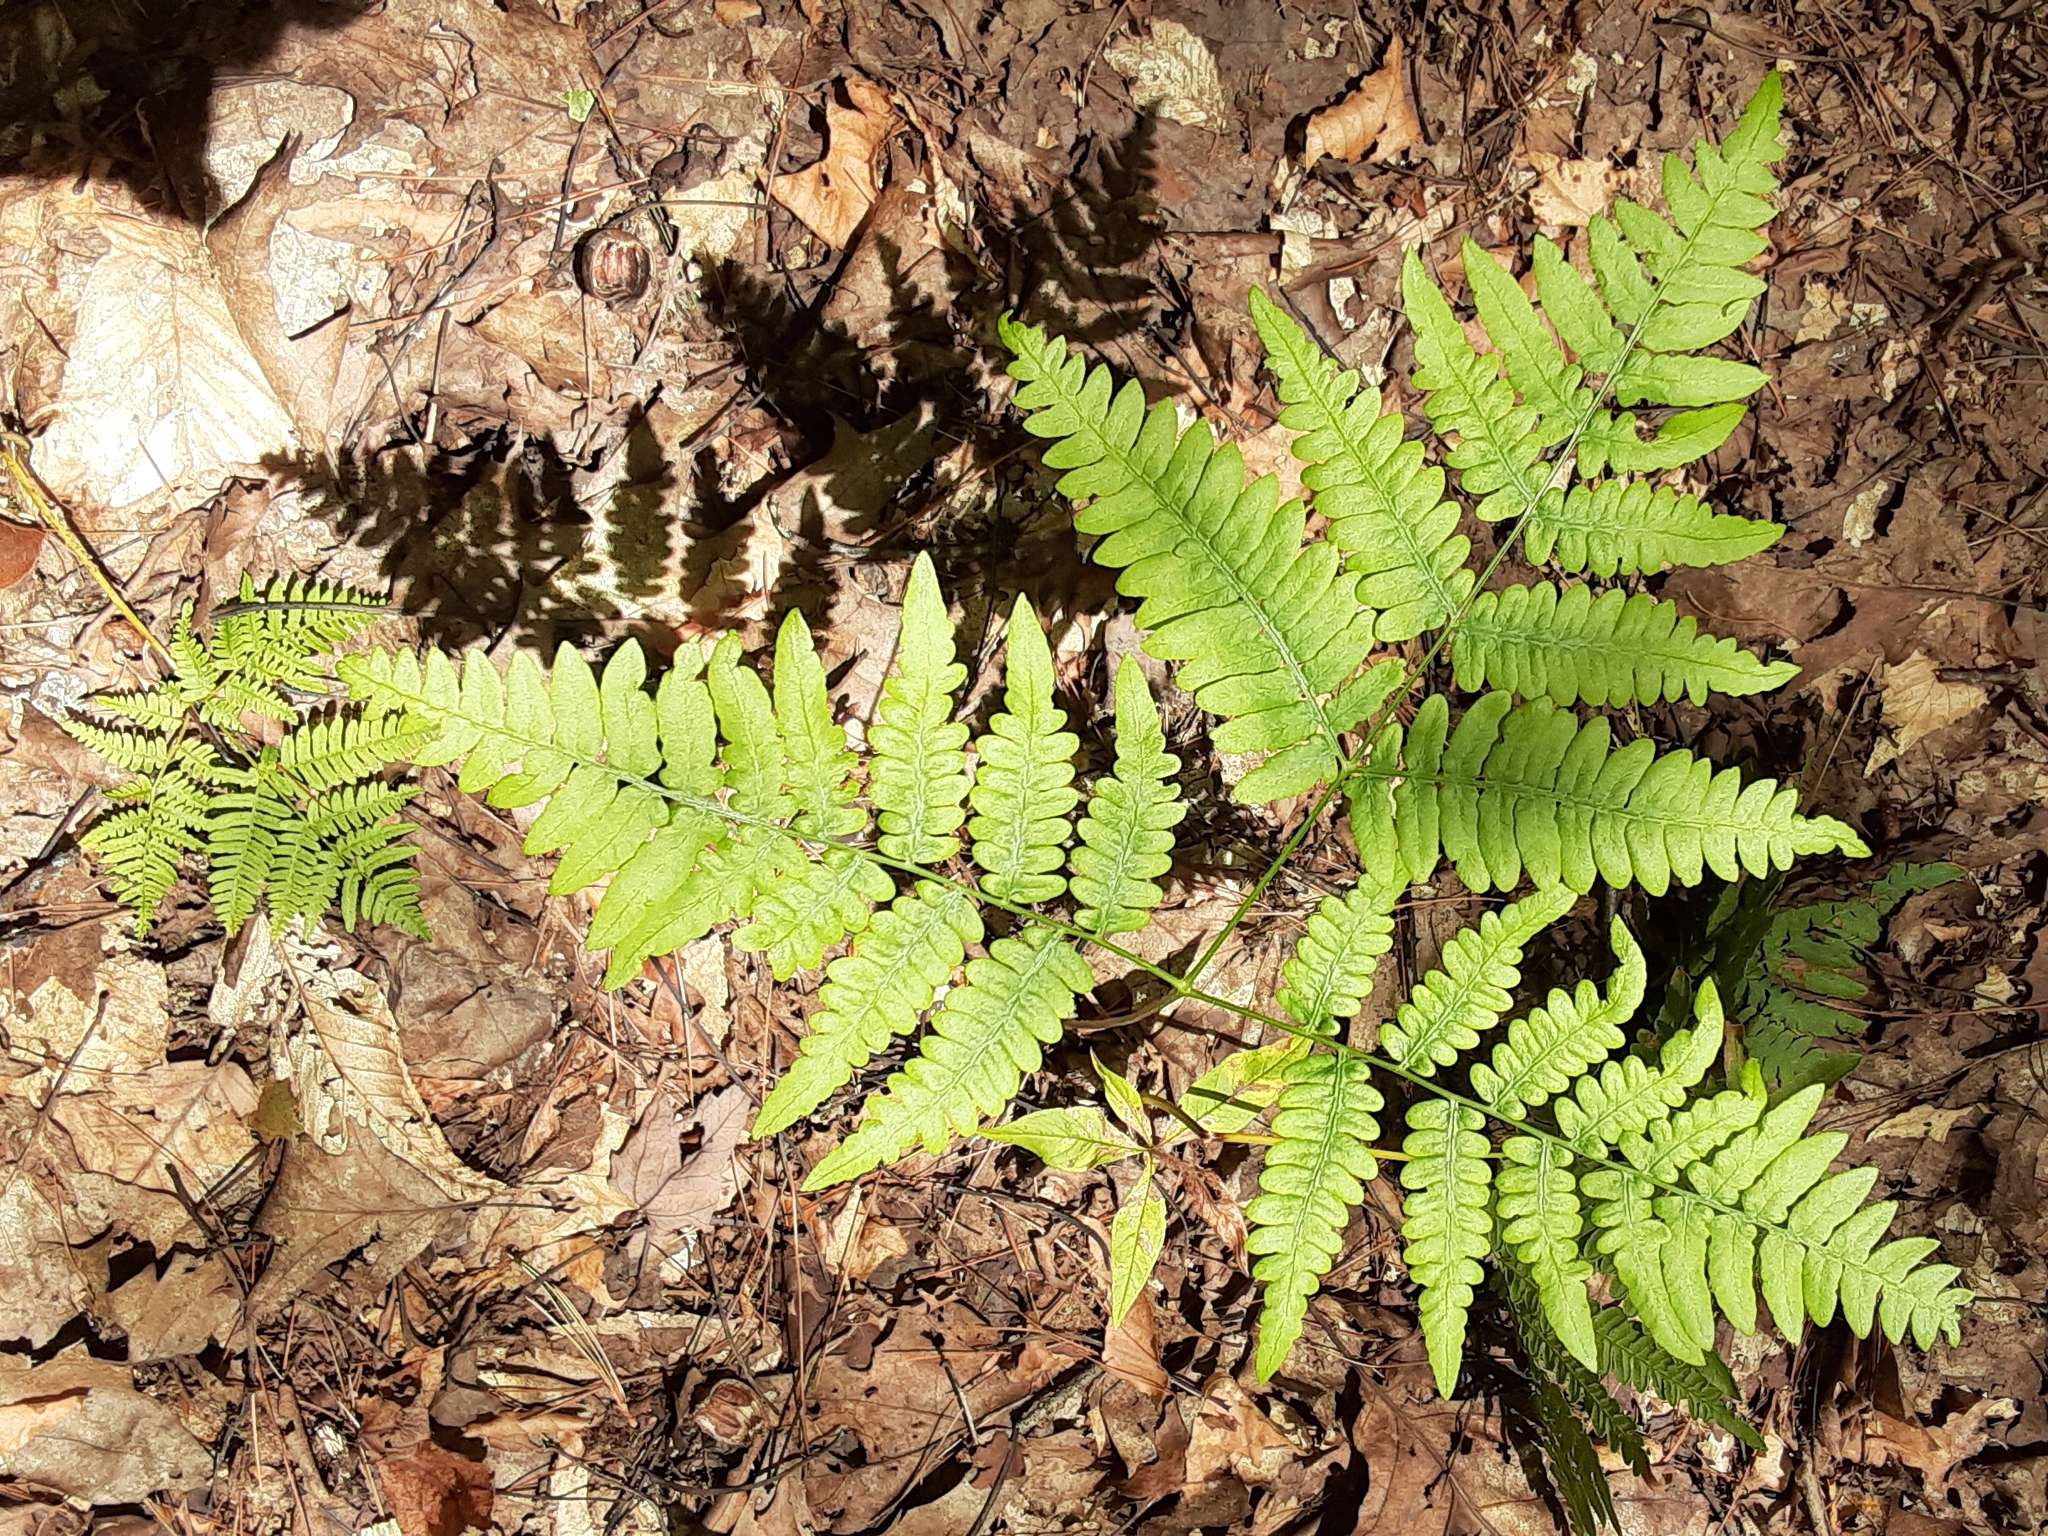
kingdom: Plantae
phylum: Tracheophyta
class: Polypodiopsida
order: Polypodiales
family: Dennstaedtiaceae
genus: Pteridium
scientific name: Pteridium aquilinum
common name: Bracken
